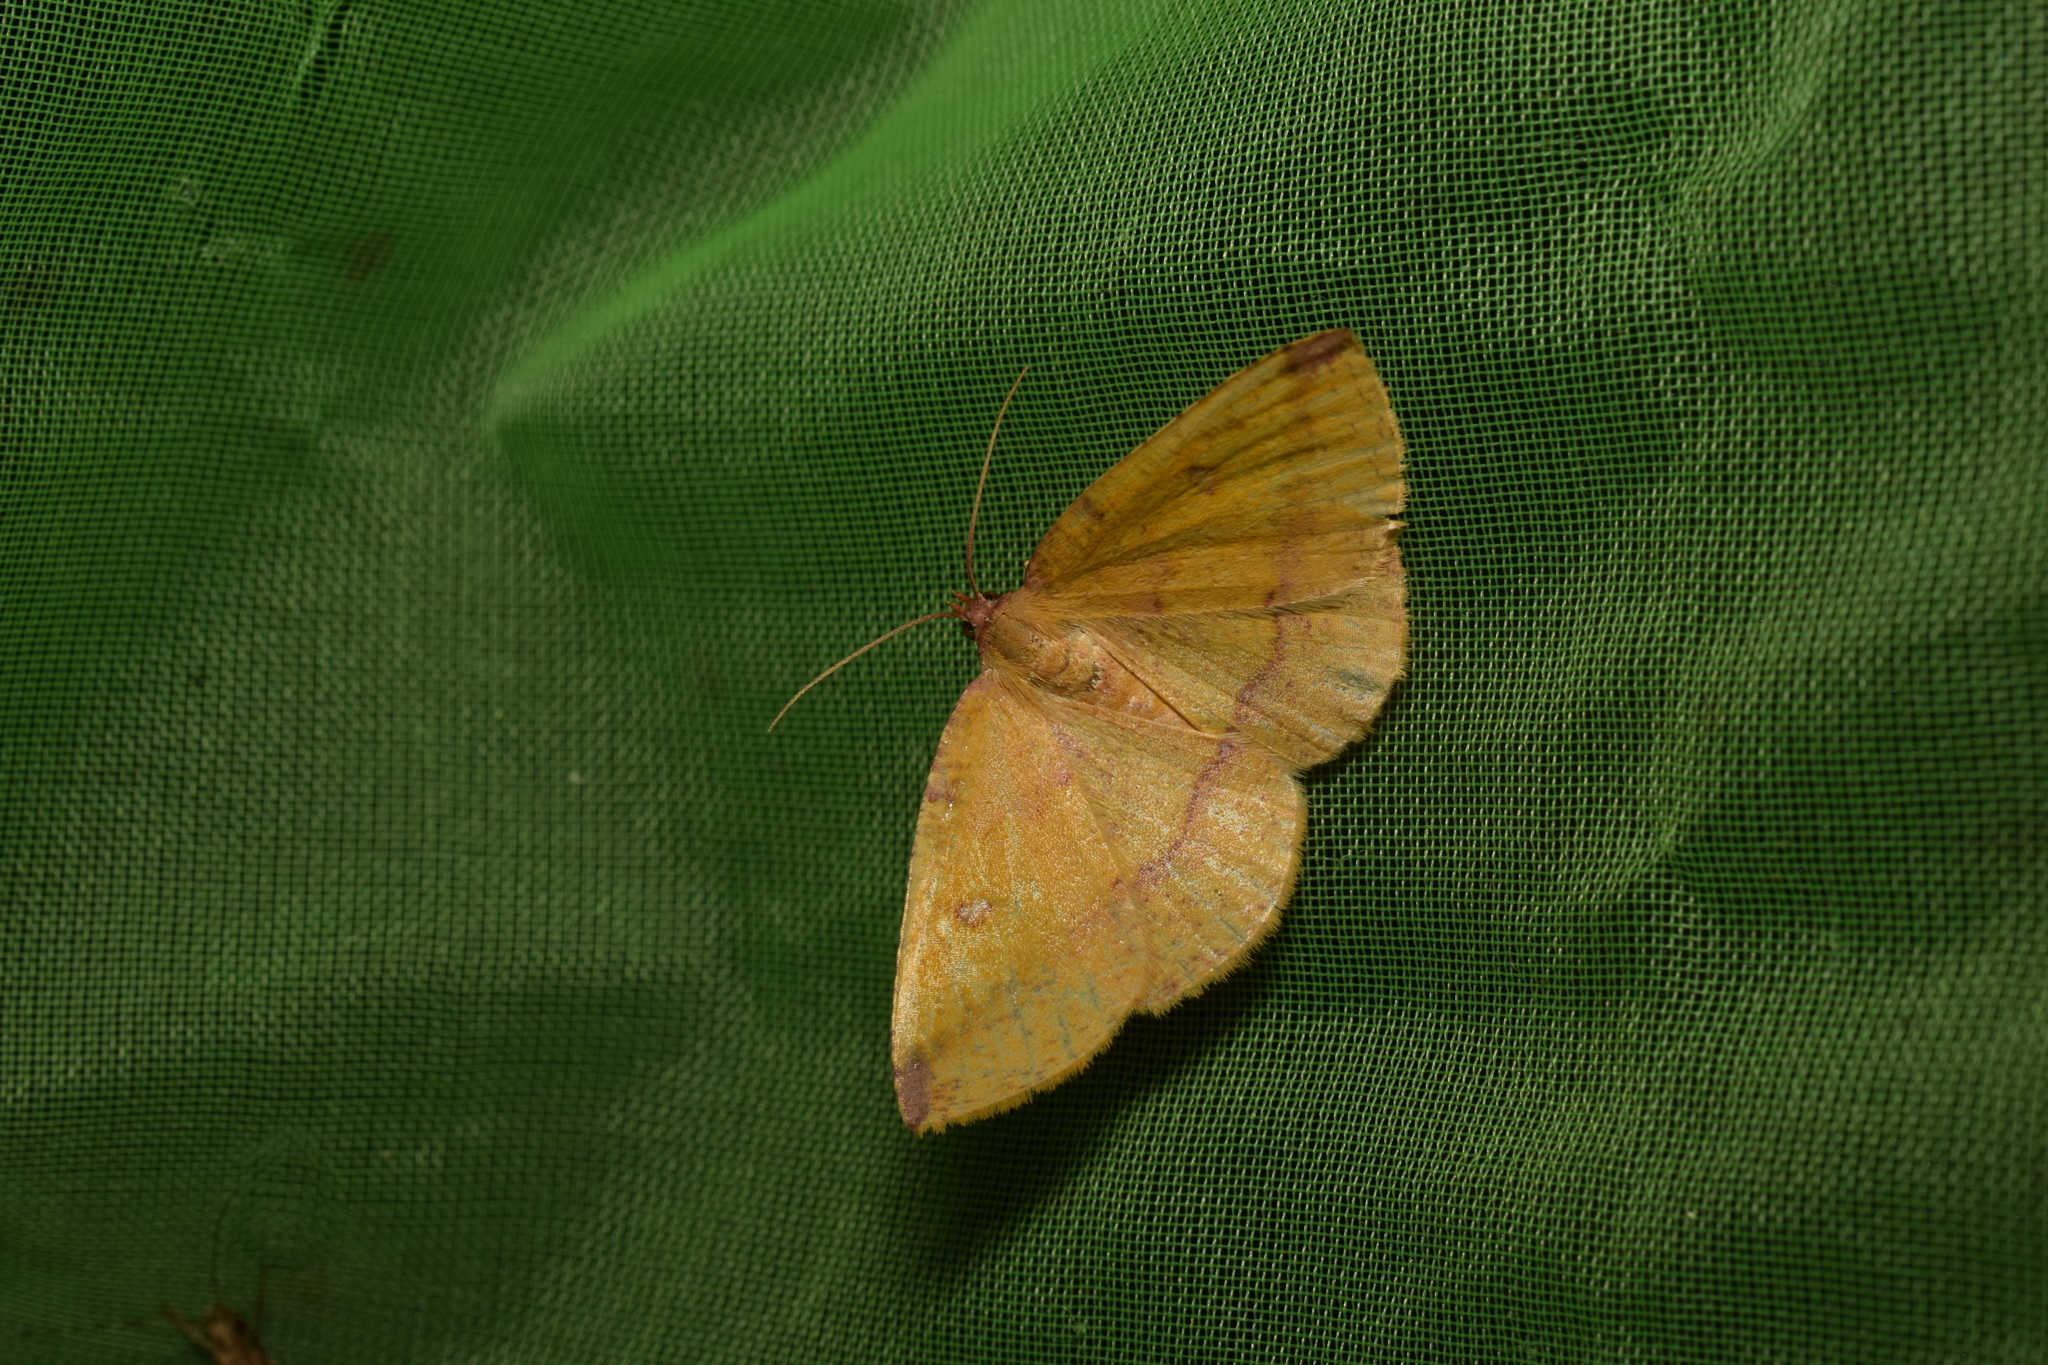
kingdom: Animalia
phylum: Arthropoda
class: Insecta
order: Lepidoptera
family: Geometridae
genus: Heterolocha
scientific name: Heterolocha aristonaria
